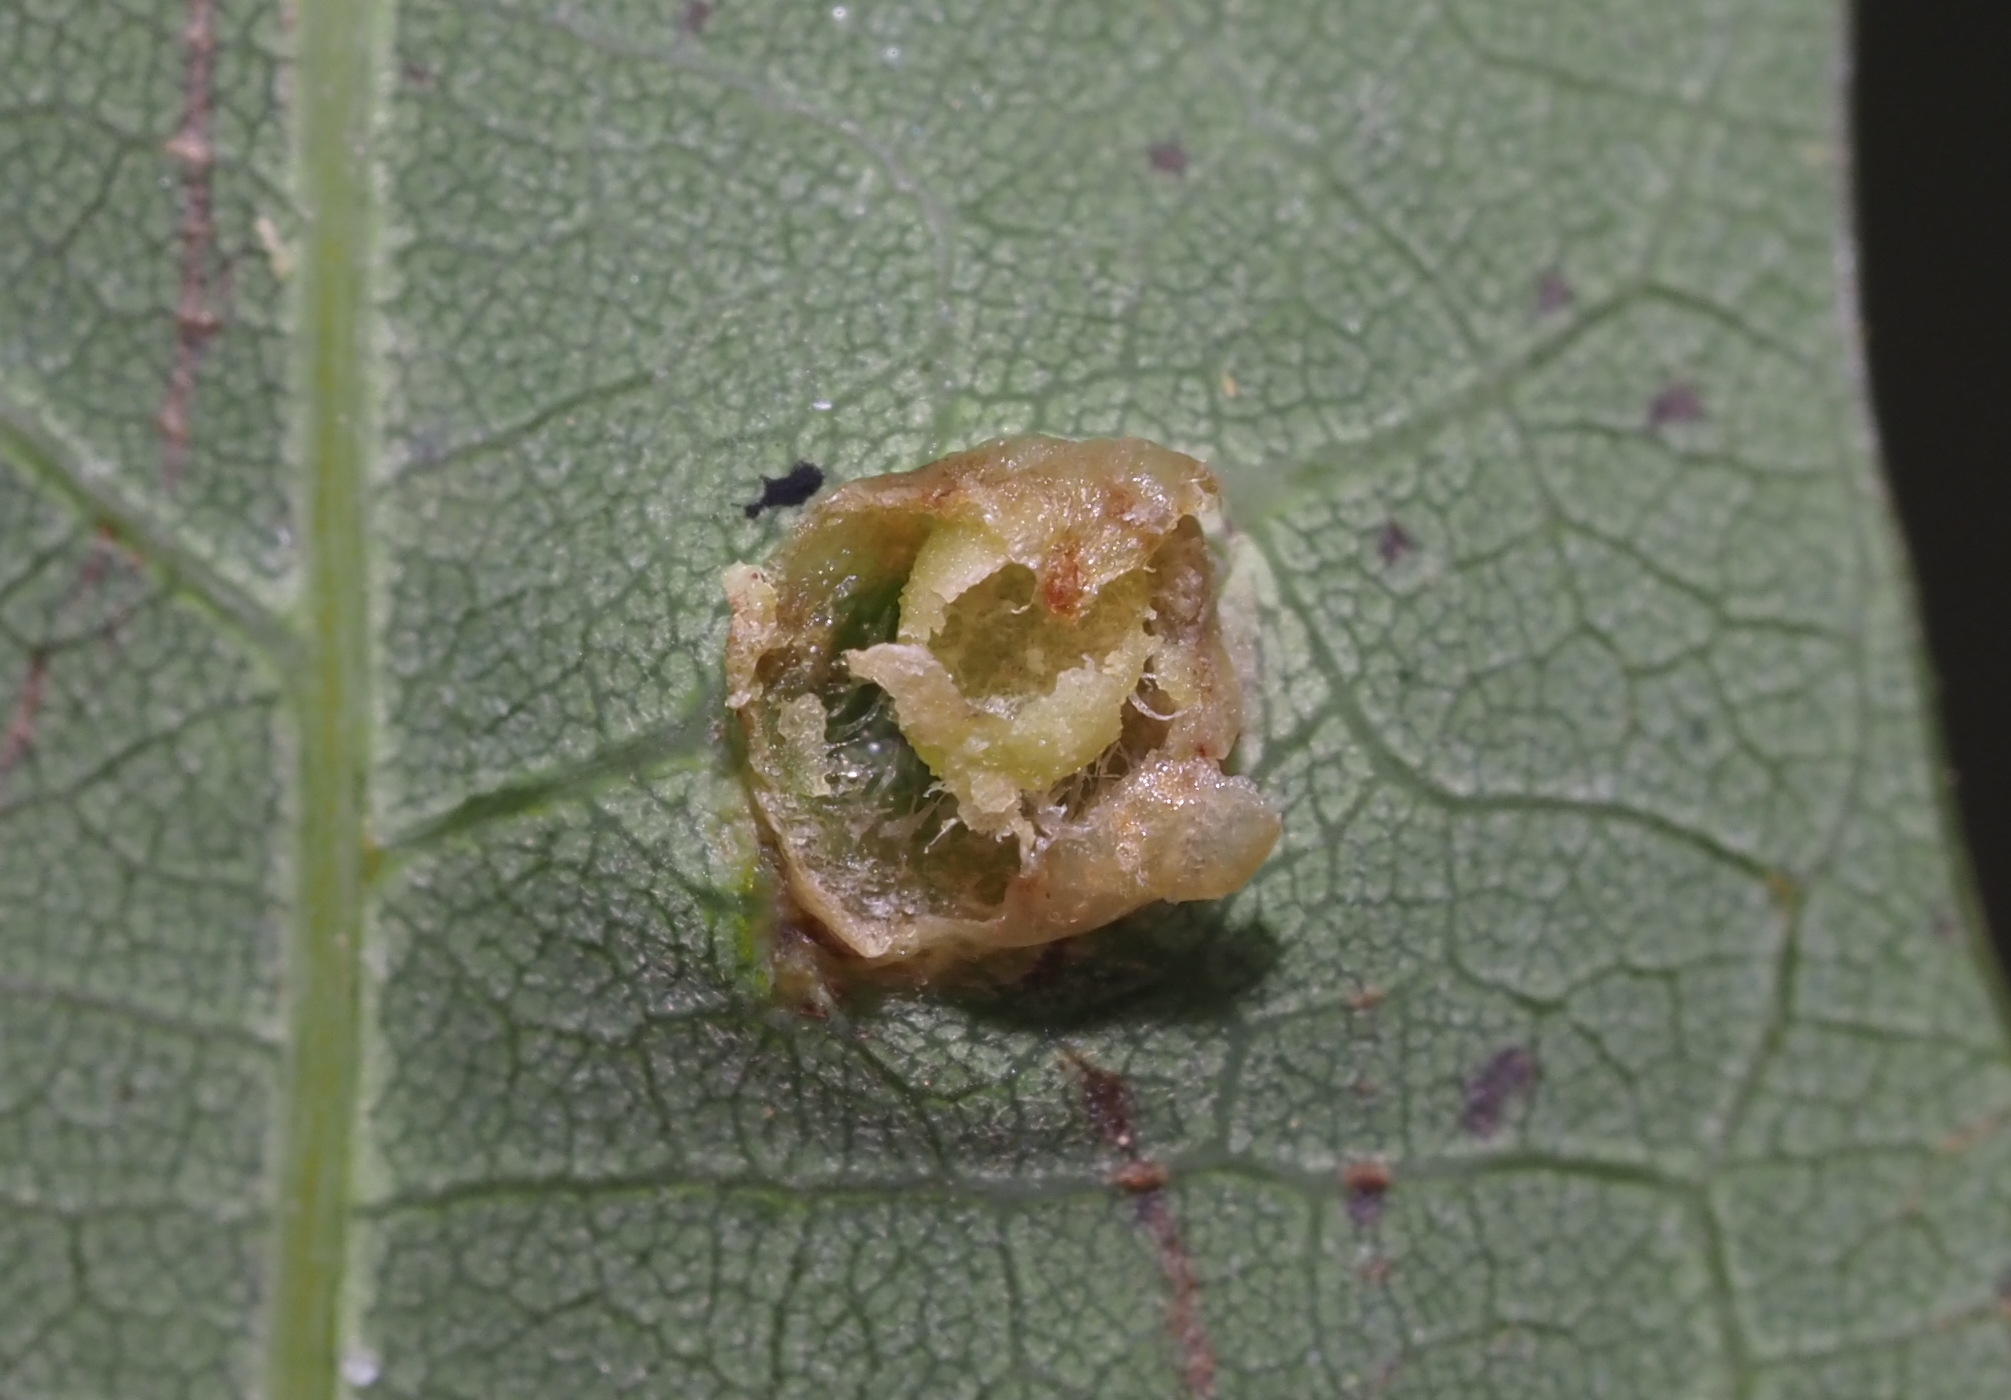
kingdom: Animalia
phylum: Arthropoda
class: Insecta
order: Hymenoptera
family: Cynipidae
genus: Callirhytis
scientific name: Callirhytis
